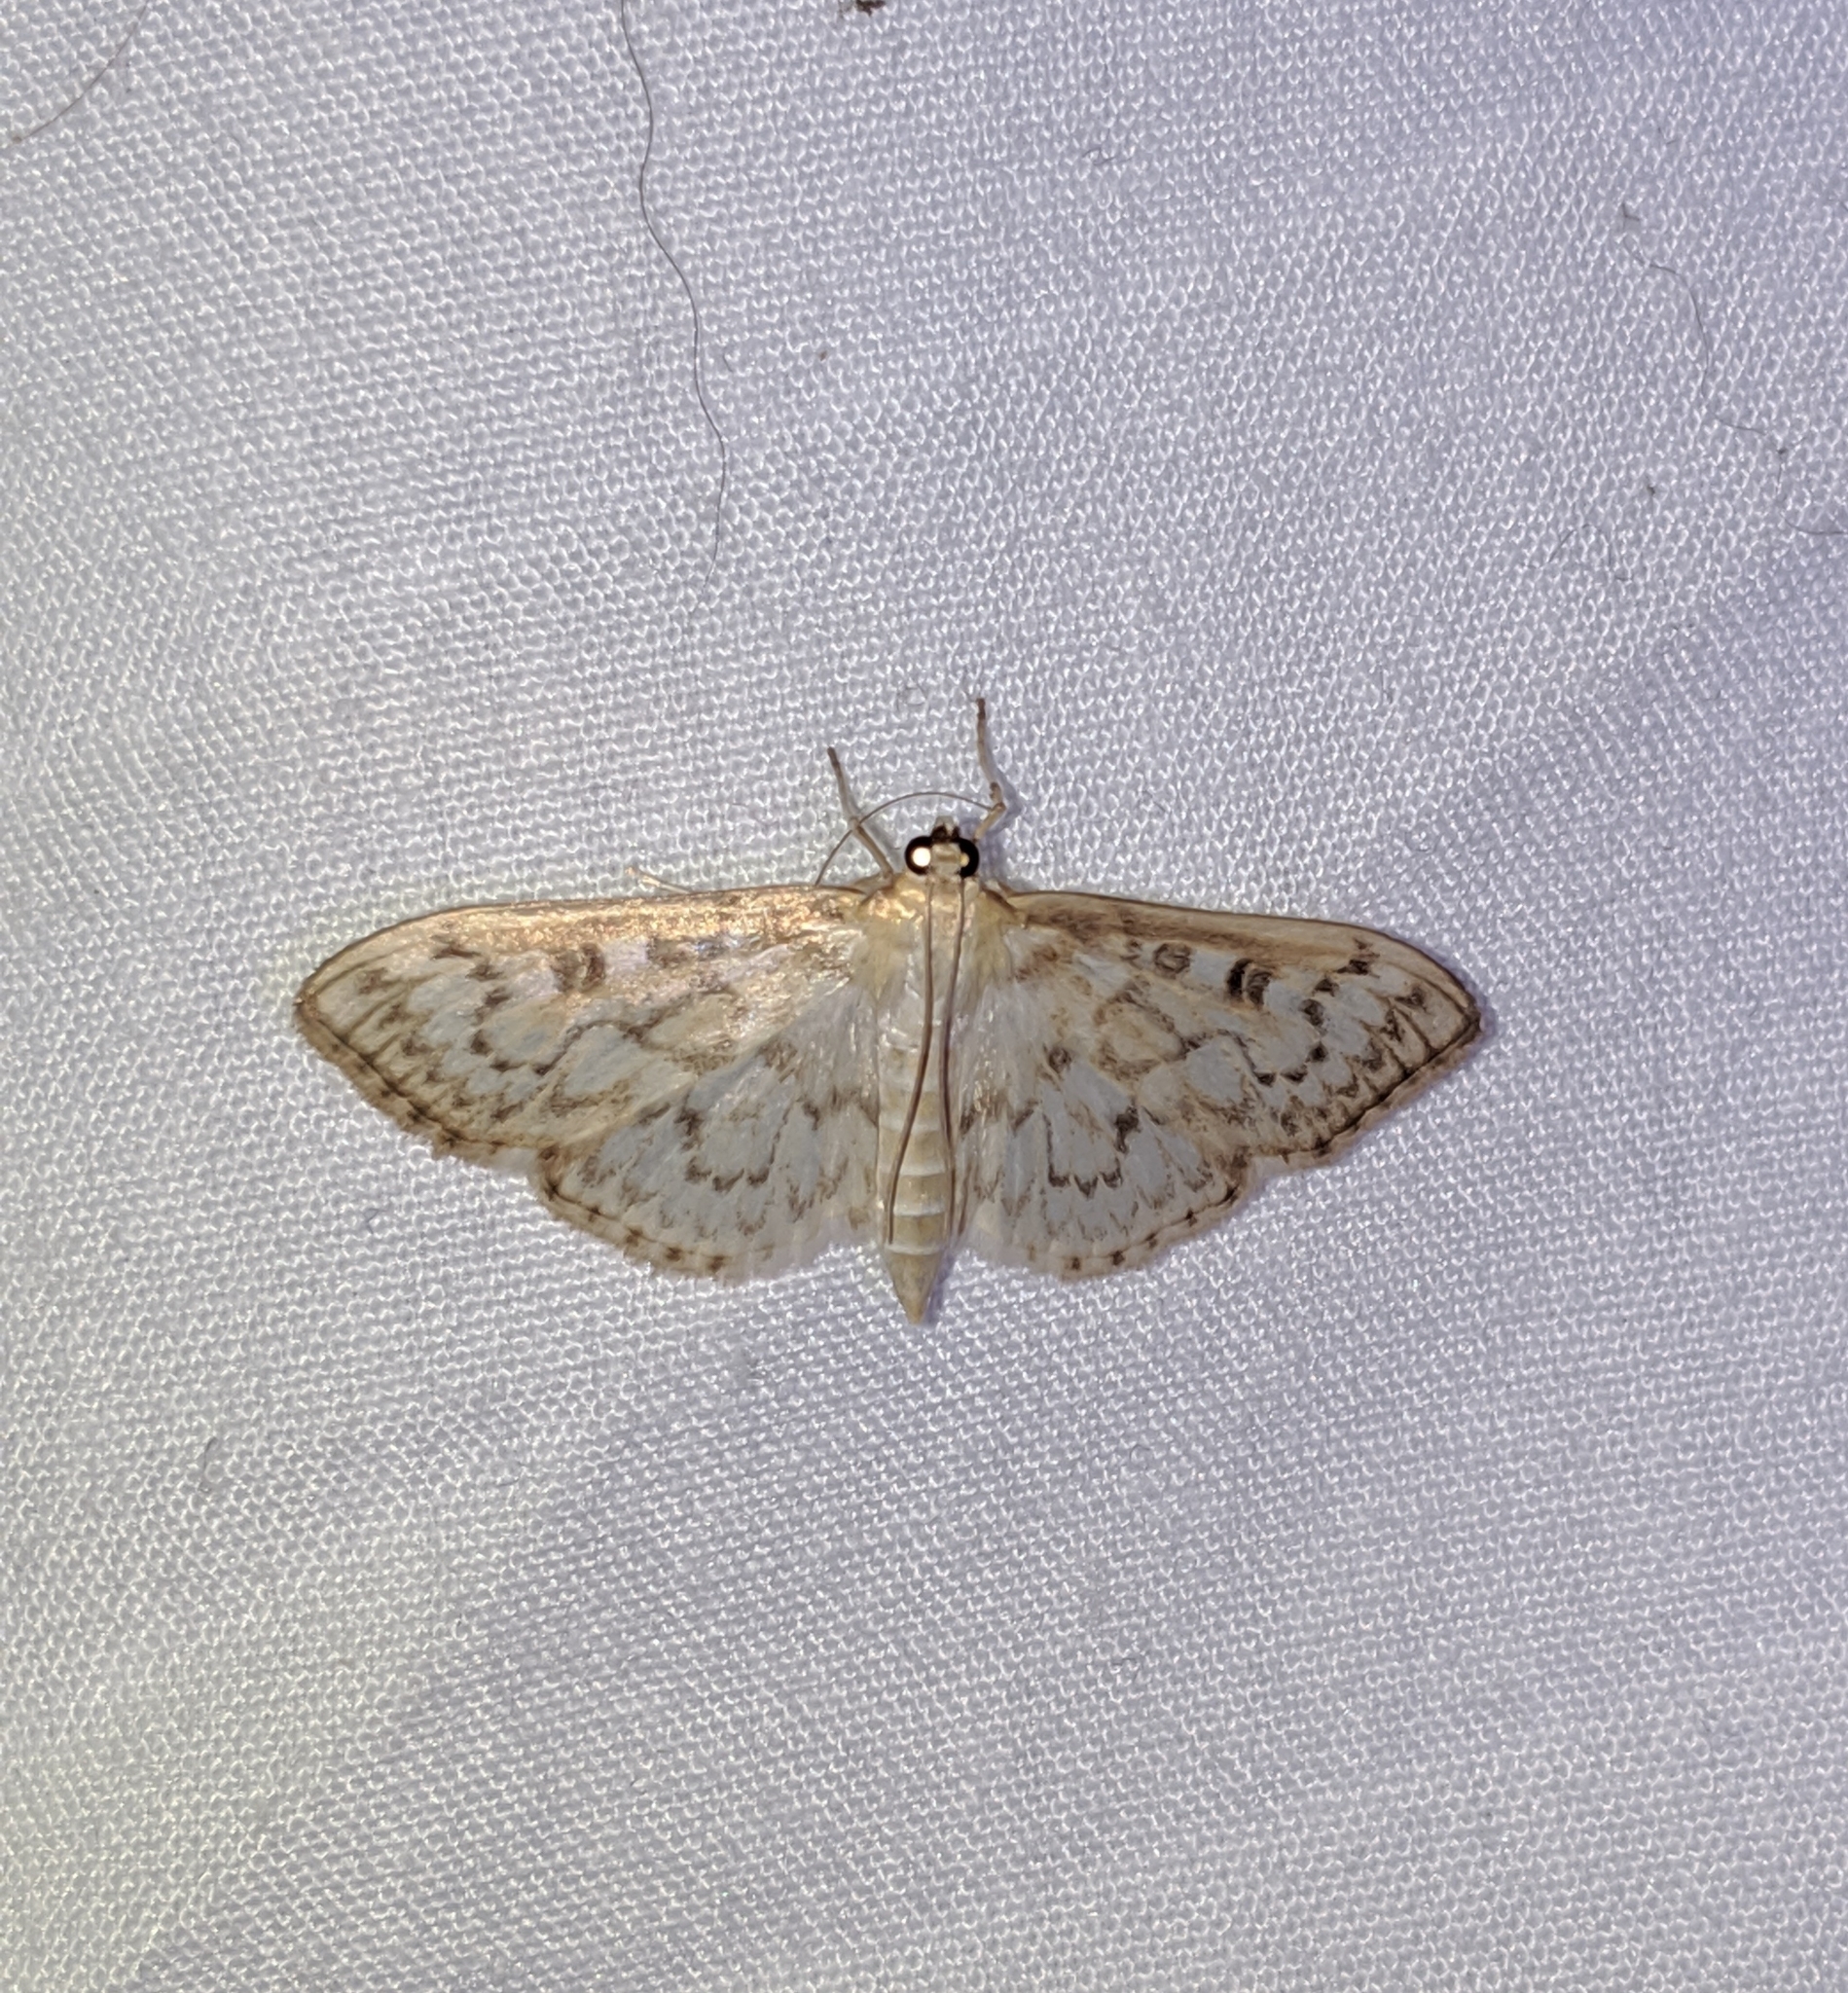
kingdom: Animalia
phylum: Arthropoda
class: Insecta
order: Lepidoptera
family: Crambidae
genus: Herpetogramma
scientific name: Herpetogramma aquilonalis
